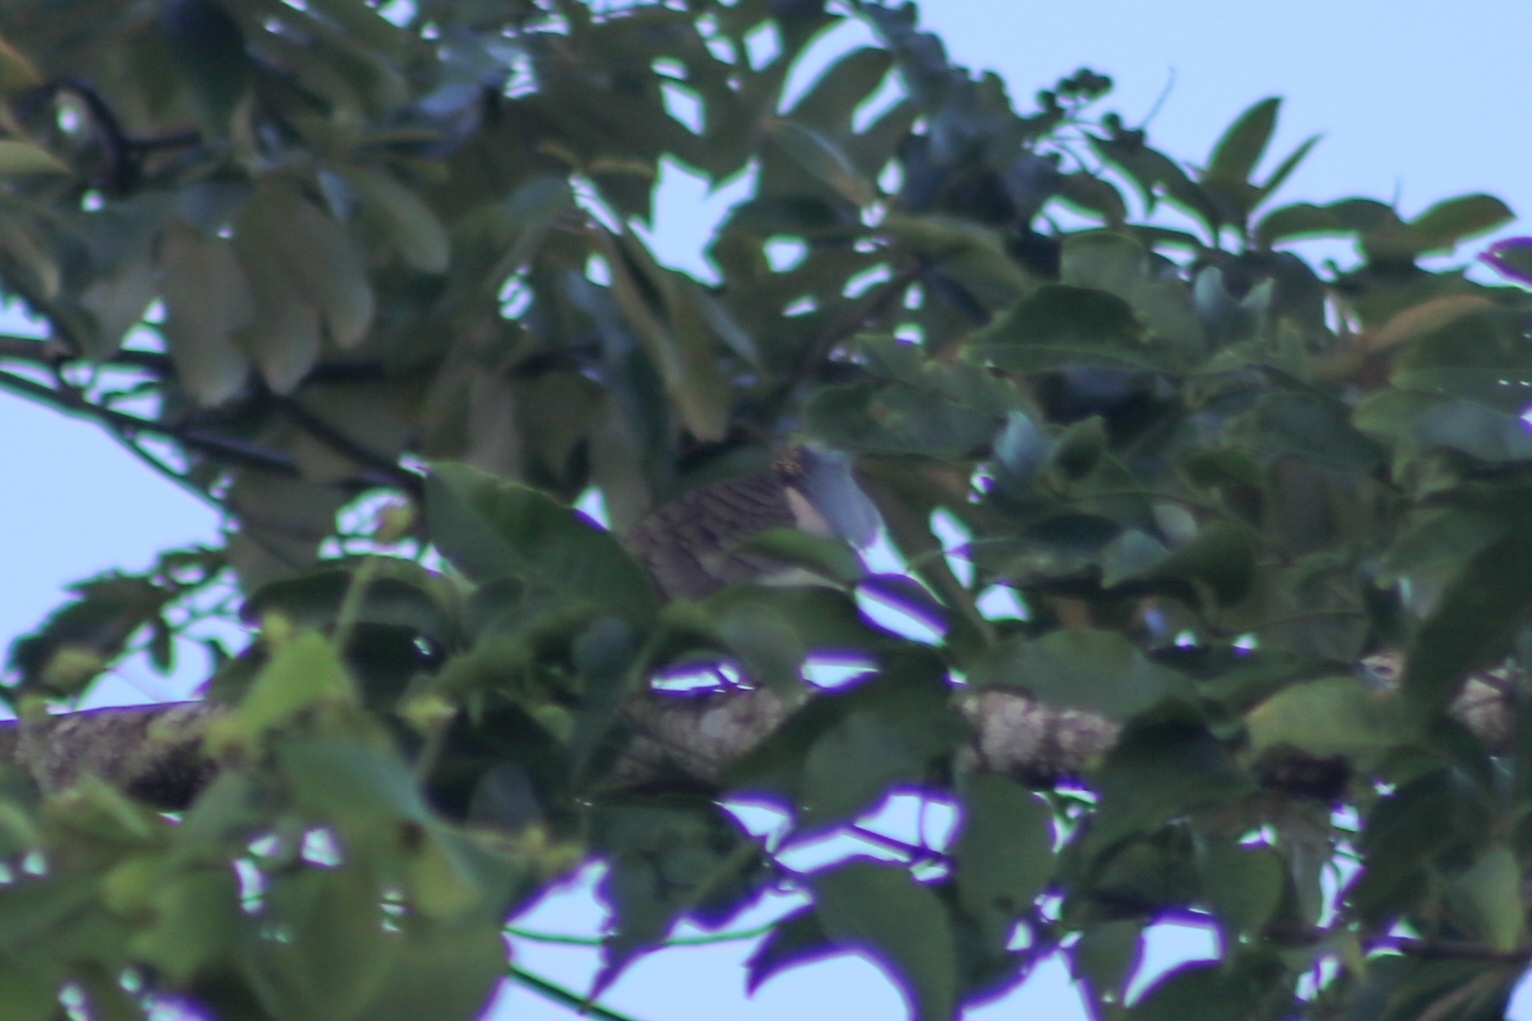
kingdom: Animalia
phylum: Chordata
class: Aves
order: Columbiformes
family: Columbidae
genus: Geopelia
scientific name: Geopelia humeralis
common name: Bar-shouldered dove
